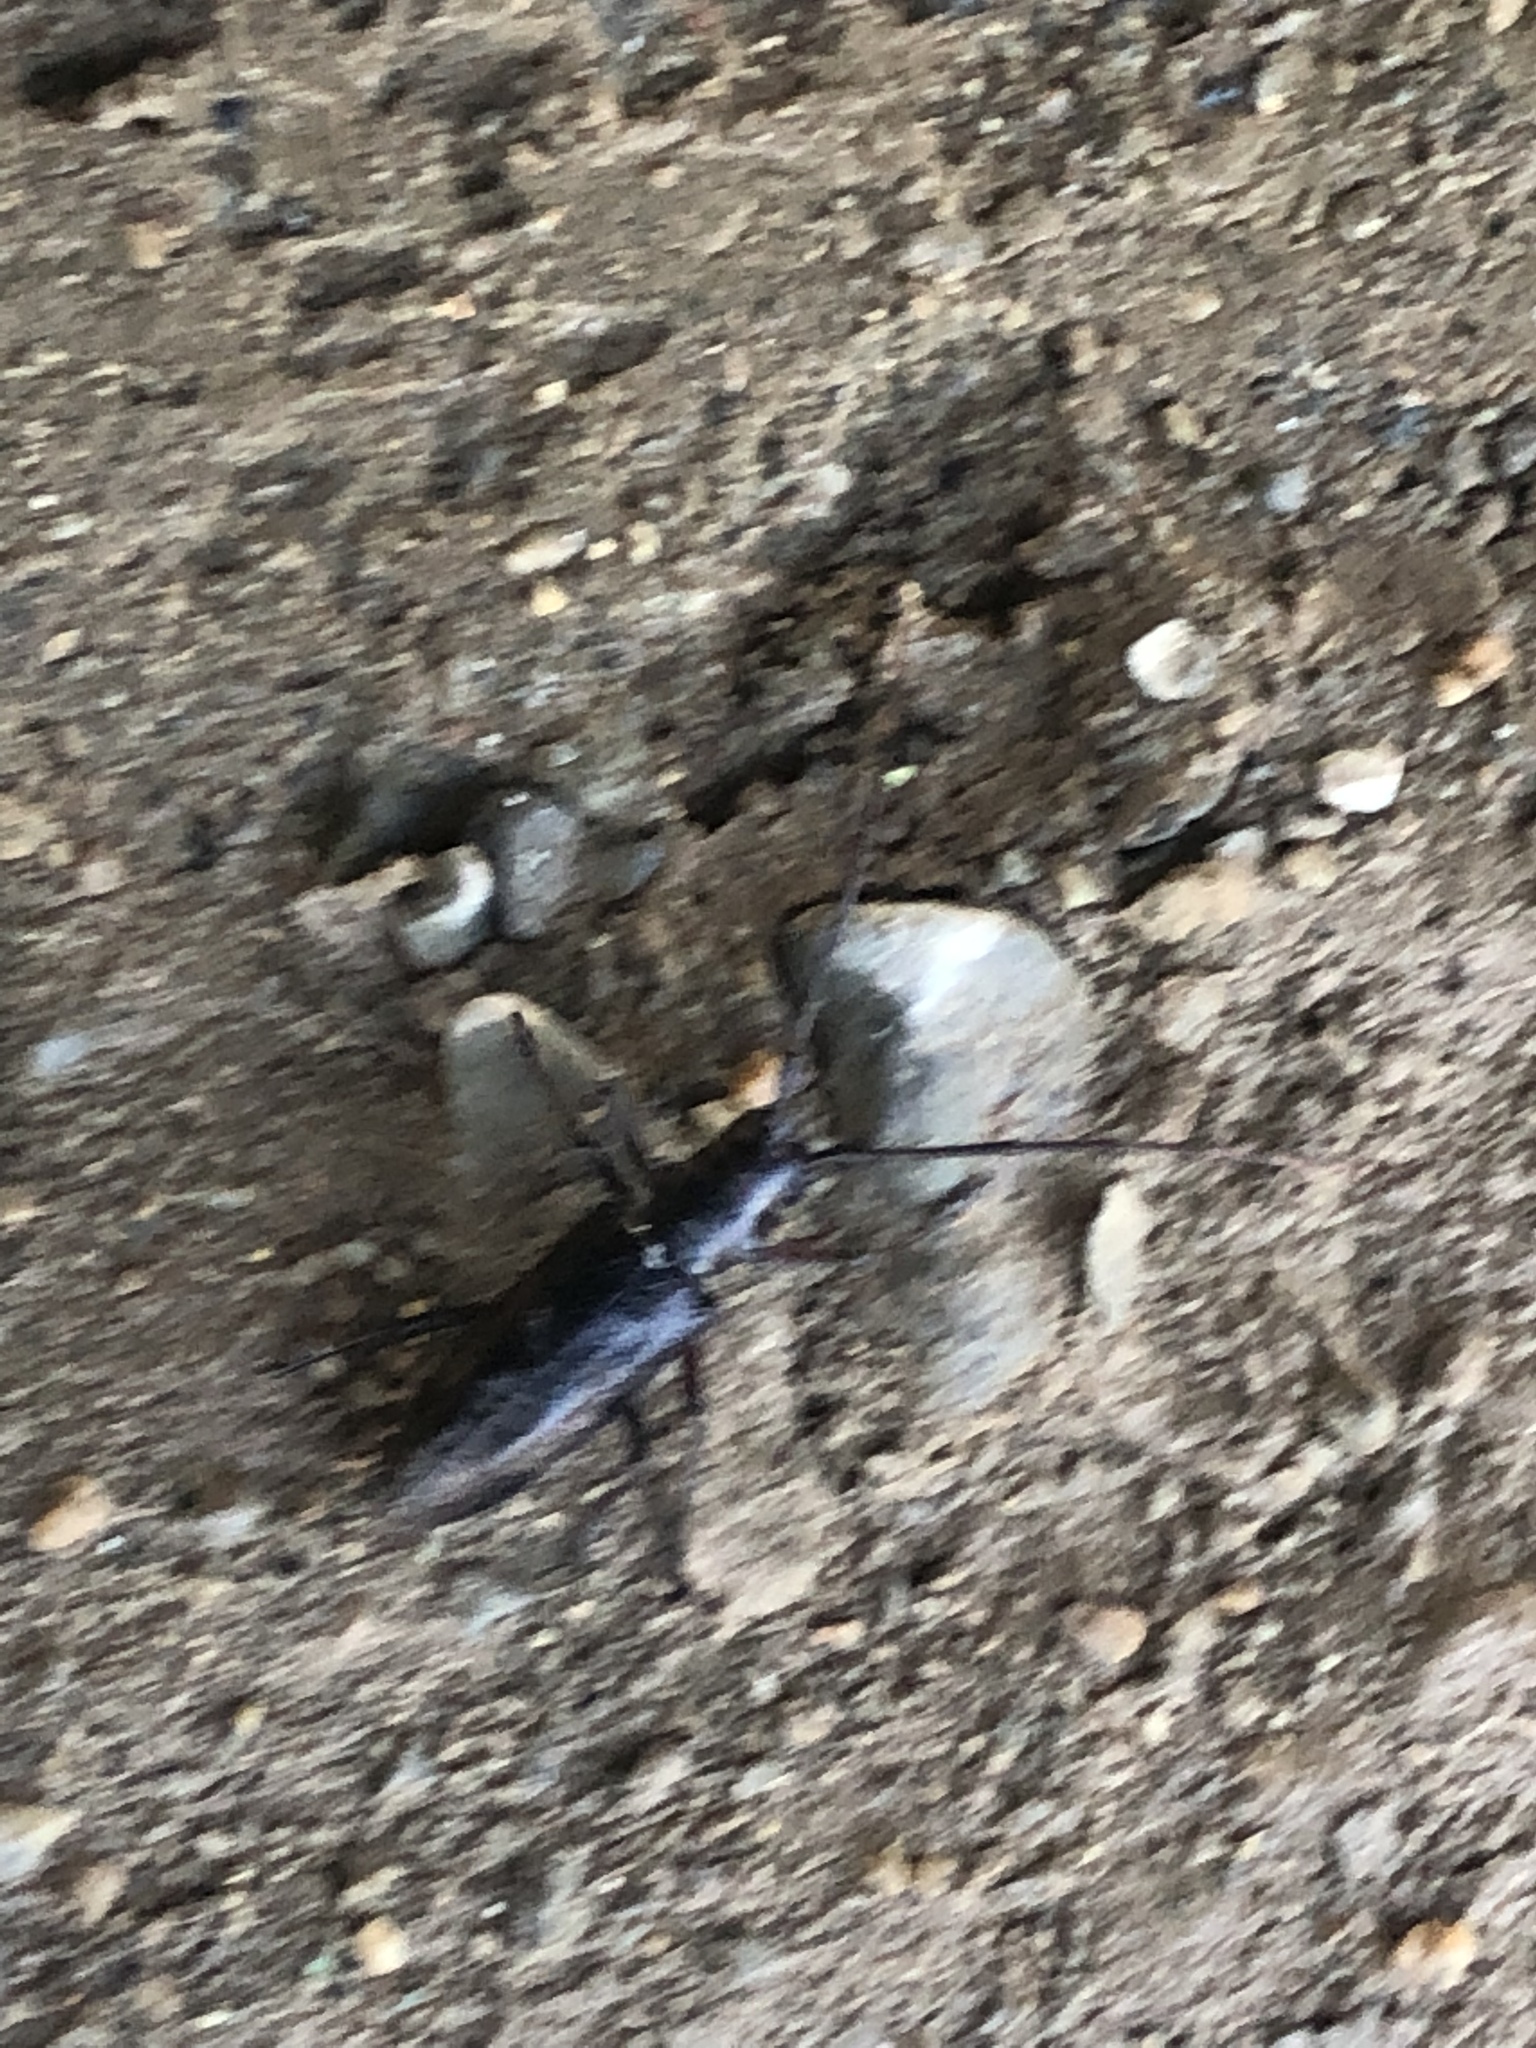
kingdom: Animalia
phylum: Arthropoda
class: Insecta
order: Coleoptera
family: Cerambycidae
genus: Monochamus
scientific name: Monochamus scutellatus
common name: White-spotted sawyer beetle
